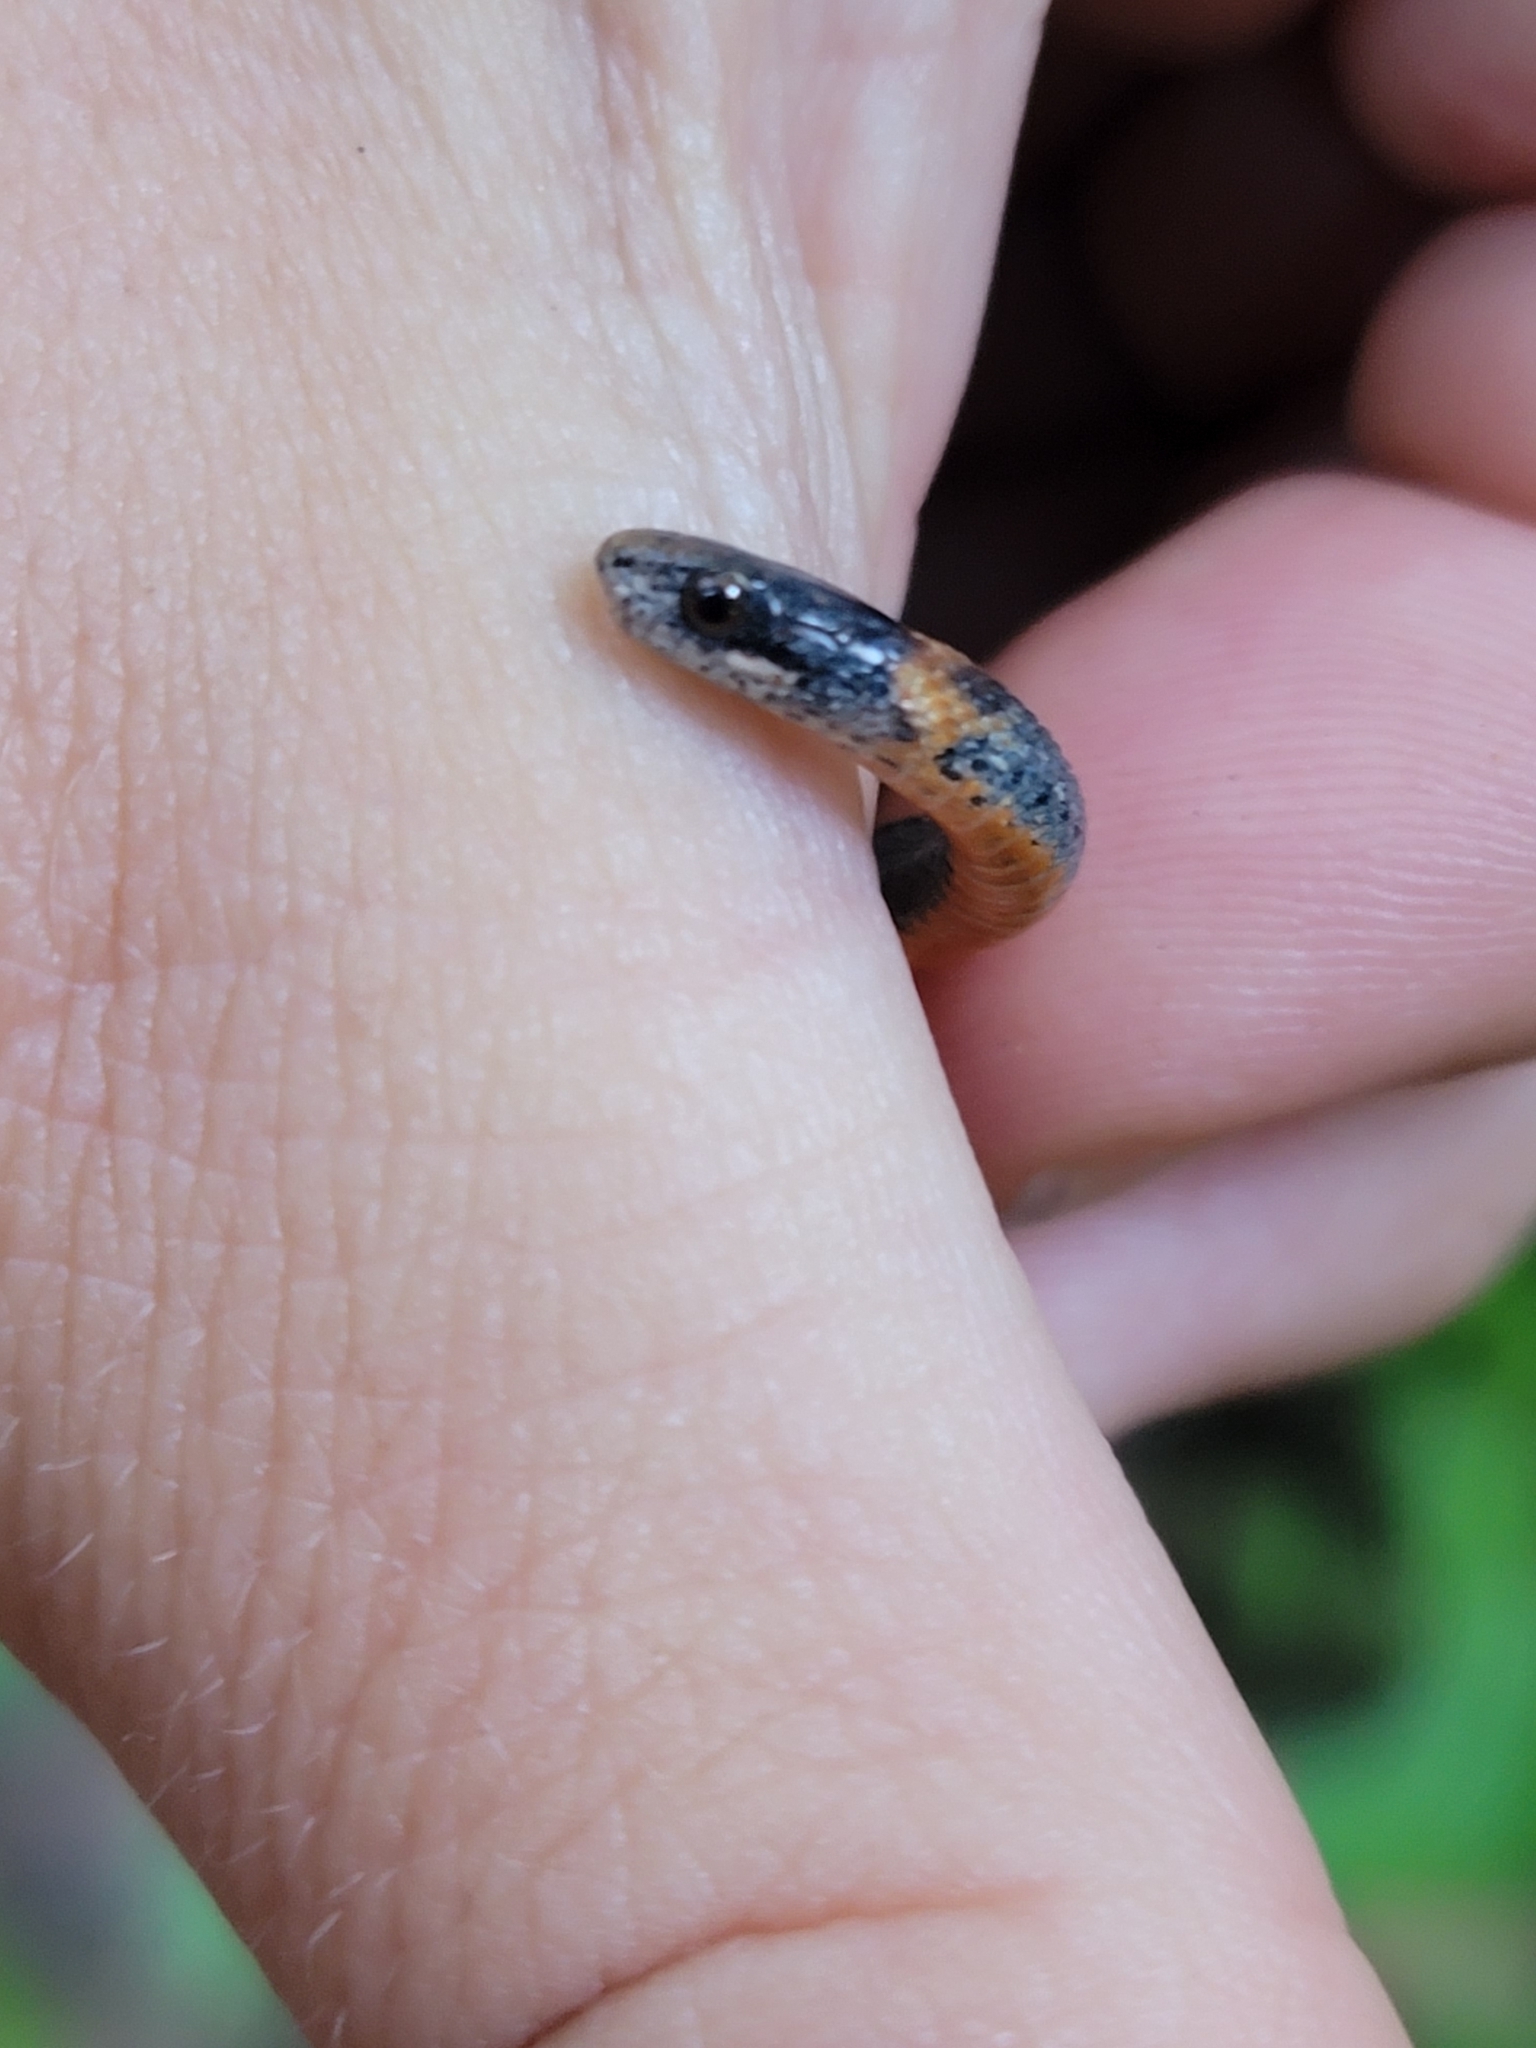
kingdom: Animalia
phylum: Chordata
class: Squamata
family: Colubridae
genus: Storeria
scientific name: Storeria occipitomaculata
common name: Redbelly snake
